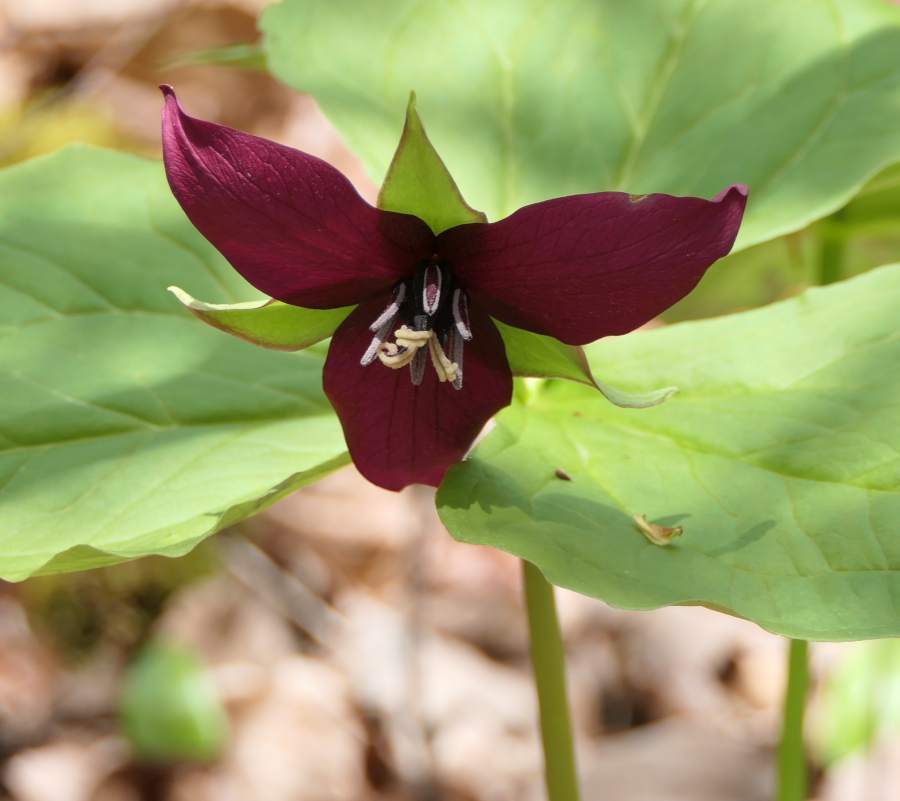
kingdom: Plantae
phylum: Tracheophyta
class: Liliopsida
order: Liliales
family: Melanthiaceae
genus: Trillium
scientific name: Trillium erectum
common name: Purple trillium
